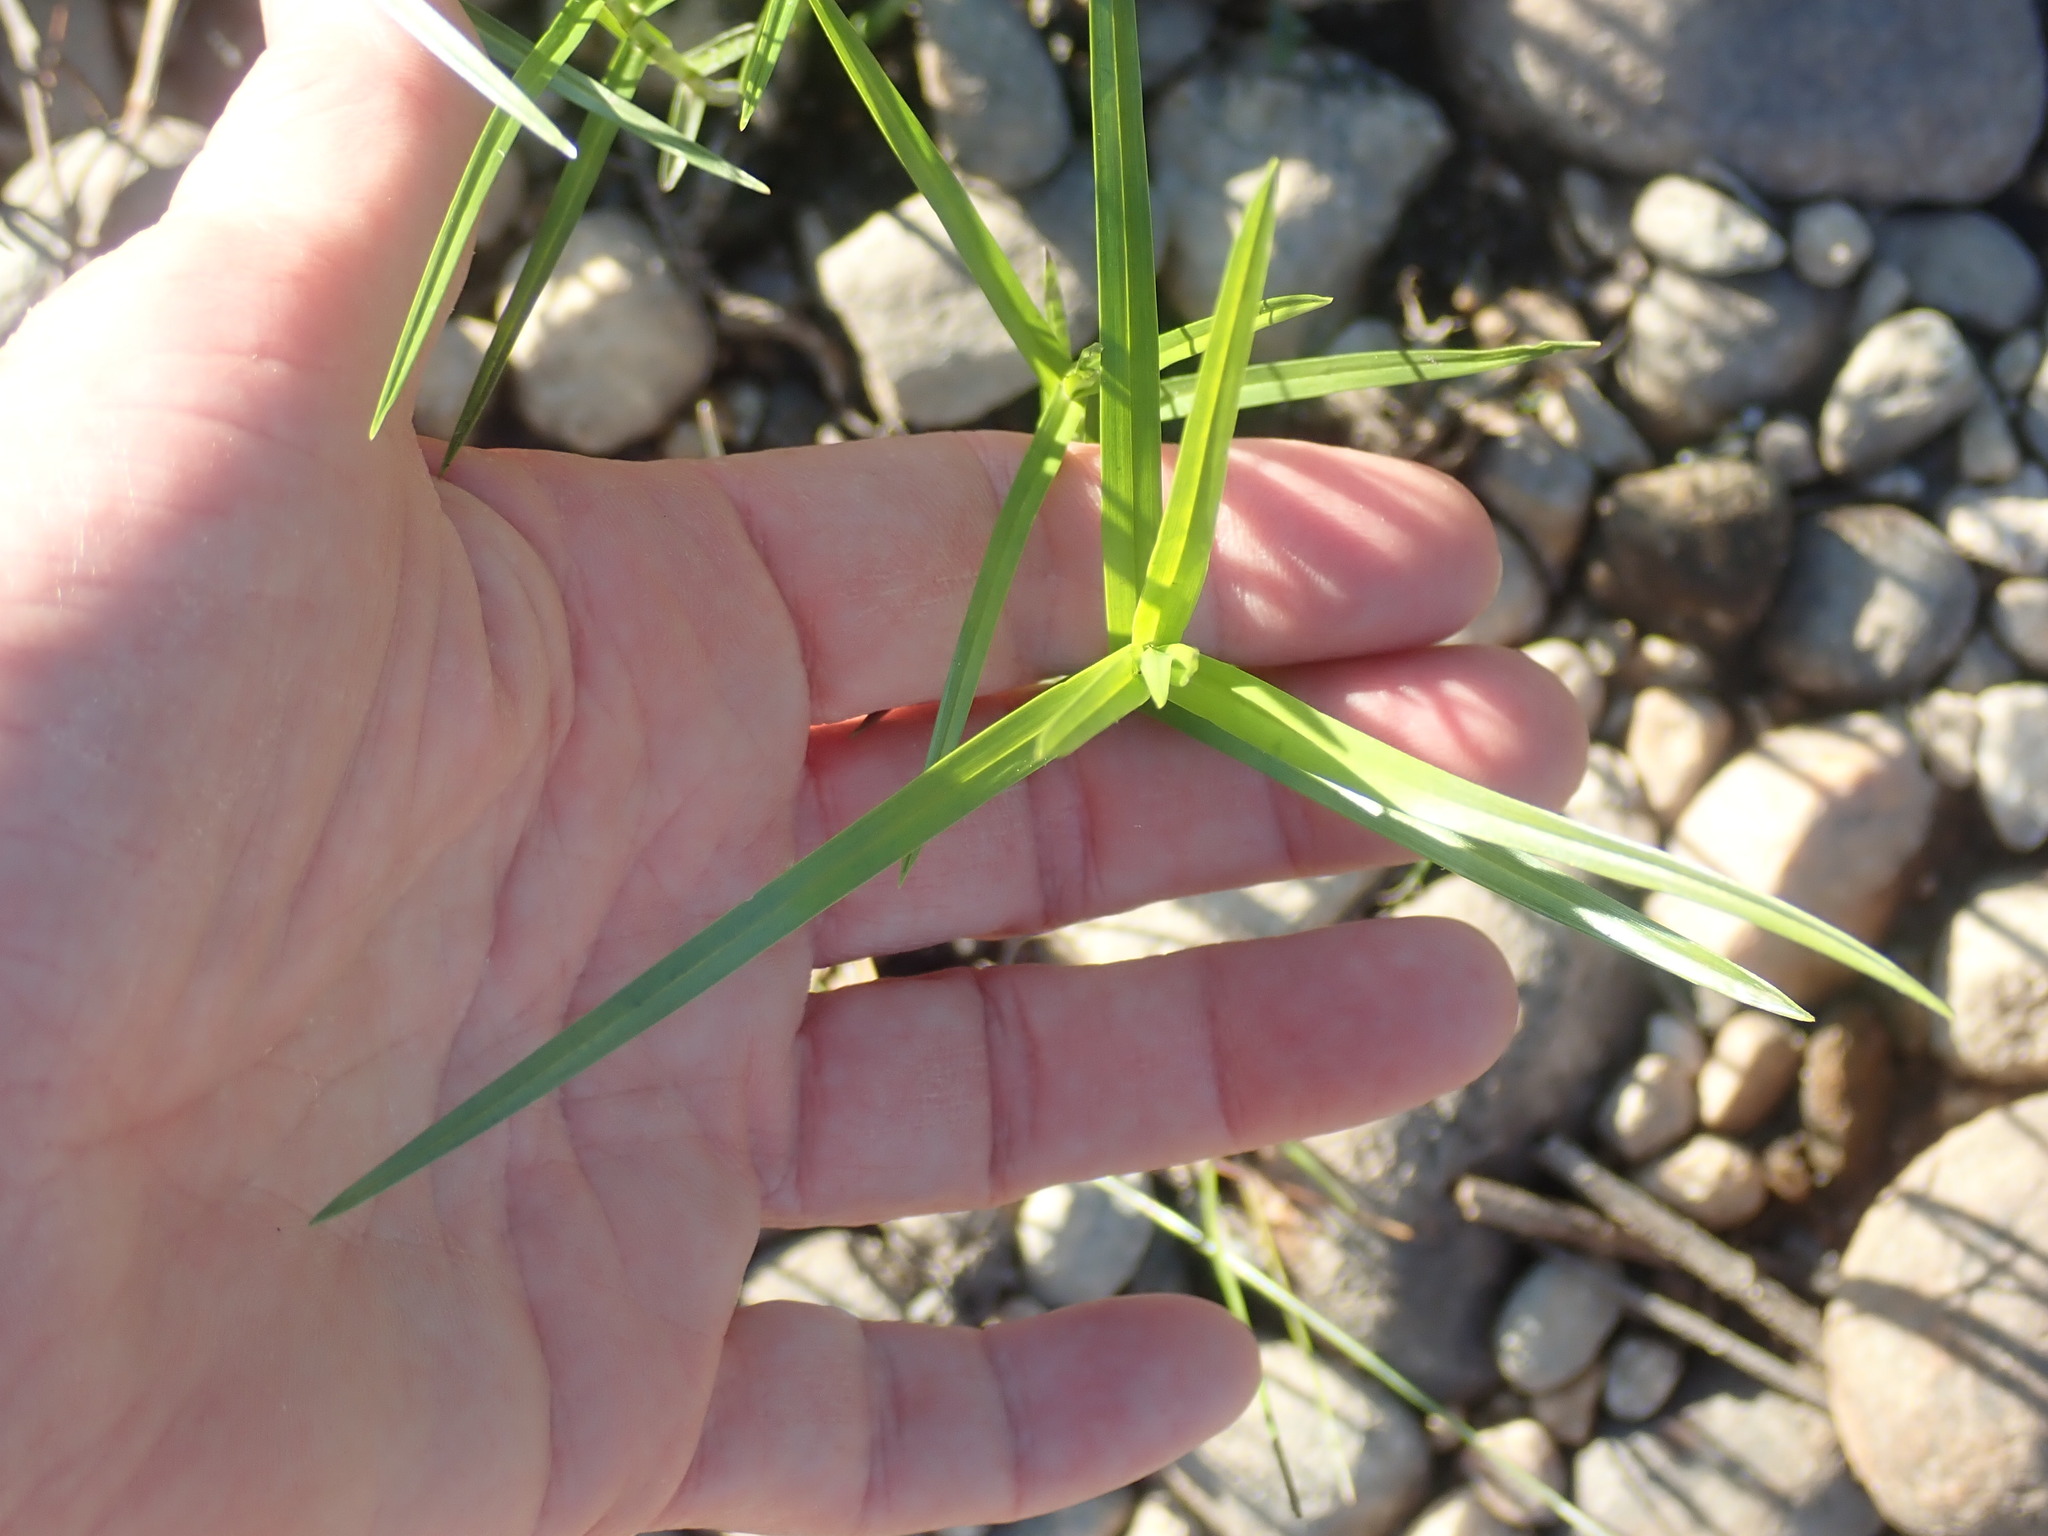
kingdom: Plantae
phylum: Tracheophyta
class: Liliopsida
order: Poales
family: Cyperaceae
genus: Dulichium
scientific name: Dulichium arundinaceum
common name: Three-way sedge
